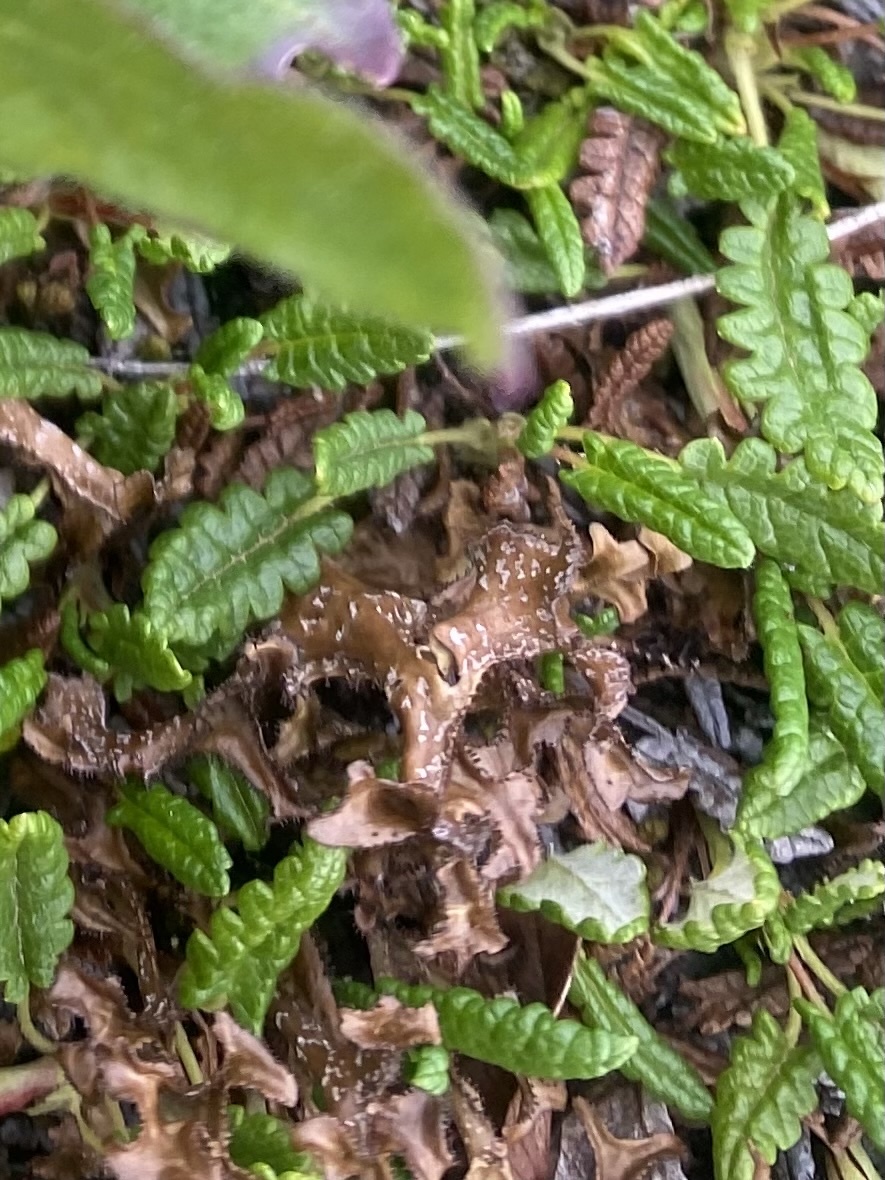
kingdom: Fungi
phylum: Ascomycota
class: Lecanoromycetes
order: Lecanorales
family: Parmeliaceae
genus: Cetraria
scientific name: Cetraria islandica
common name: Iceland lichen
